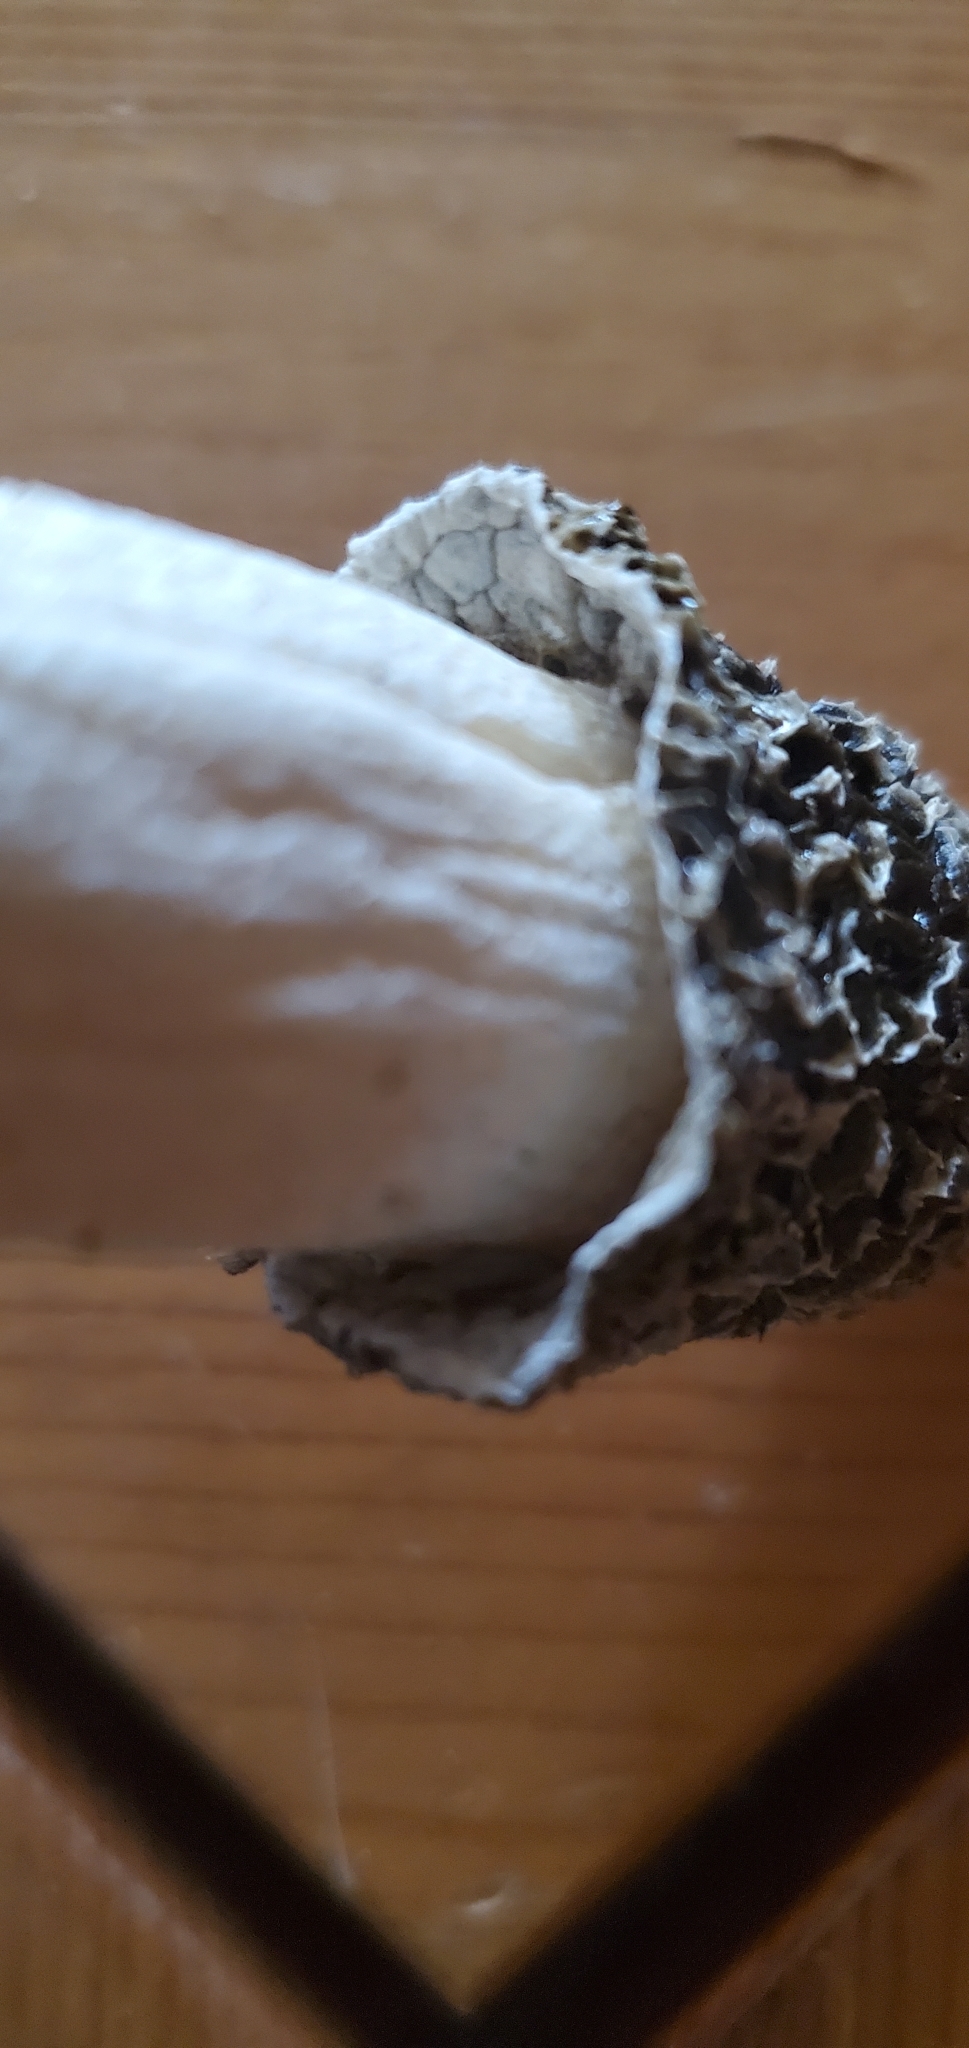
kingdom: Fungi
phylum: Basidiomycota
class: Agaricomycetes
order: Phallales
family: Phallaceae
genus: Phallus
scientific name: Phallus hadriani
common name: Sand stinkhorn
